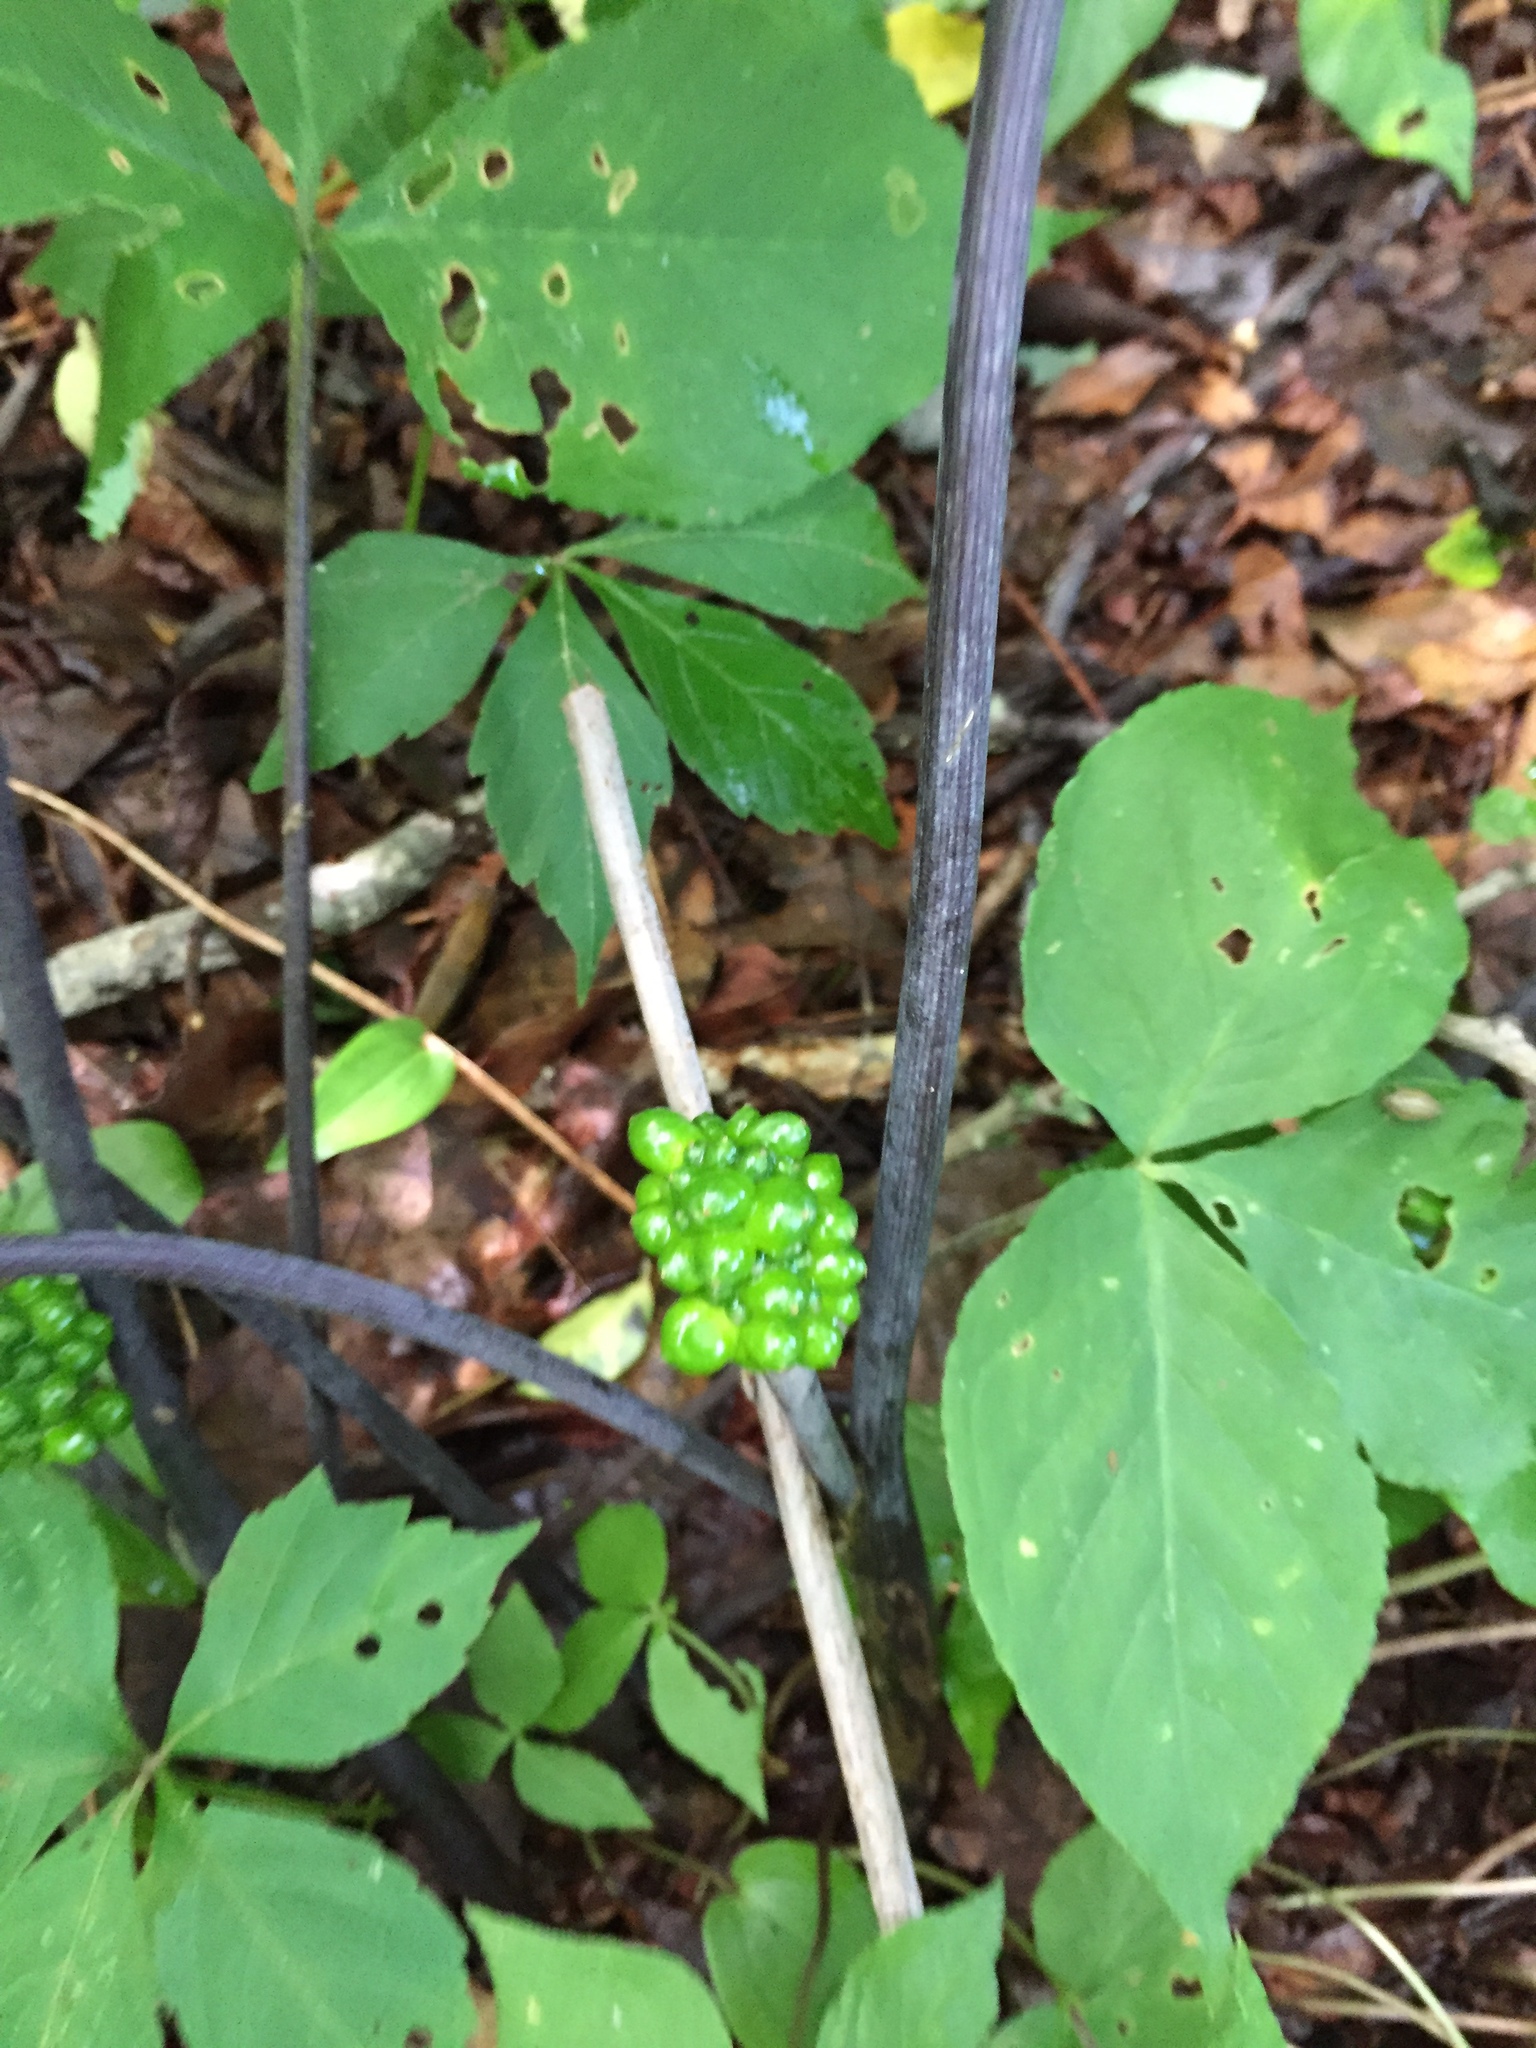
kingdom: Plantae
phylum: Tracheophyta
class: Liliopsida
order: Alismatales
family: Araceae
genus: Arisaema
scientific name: Arisaema triphyllum
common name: Jack-in-the-pulpit
